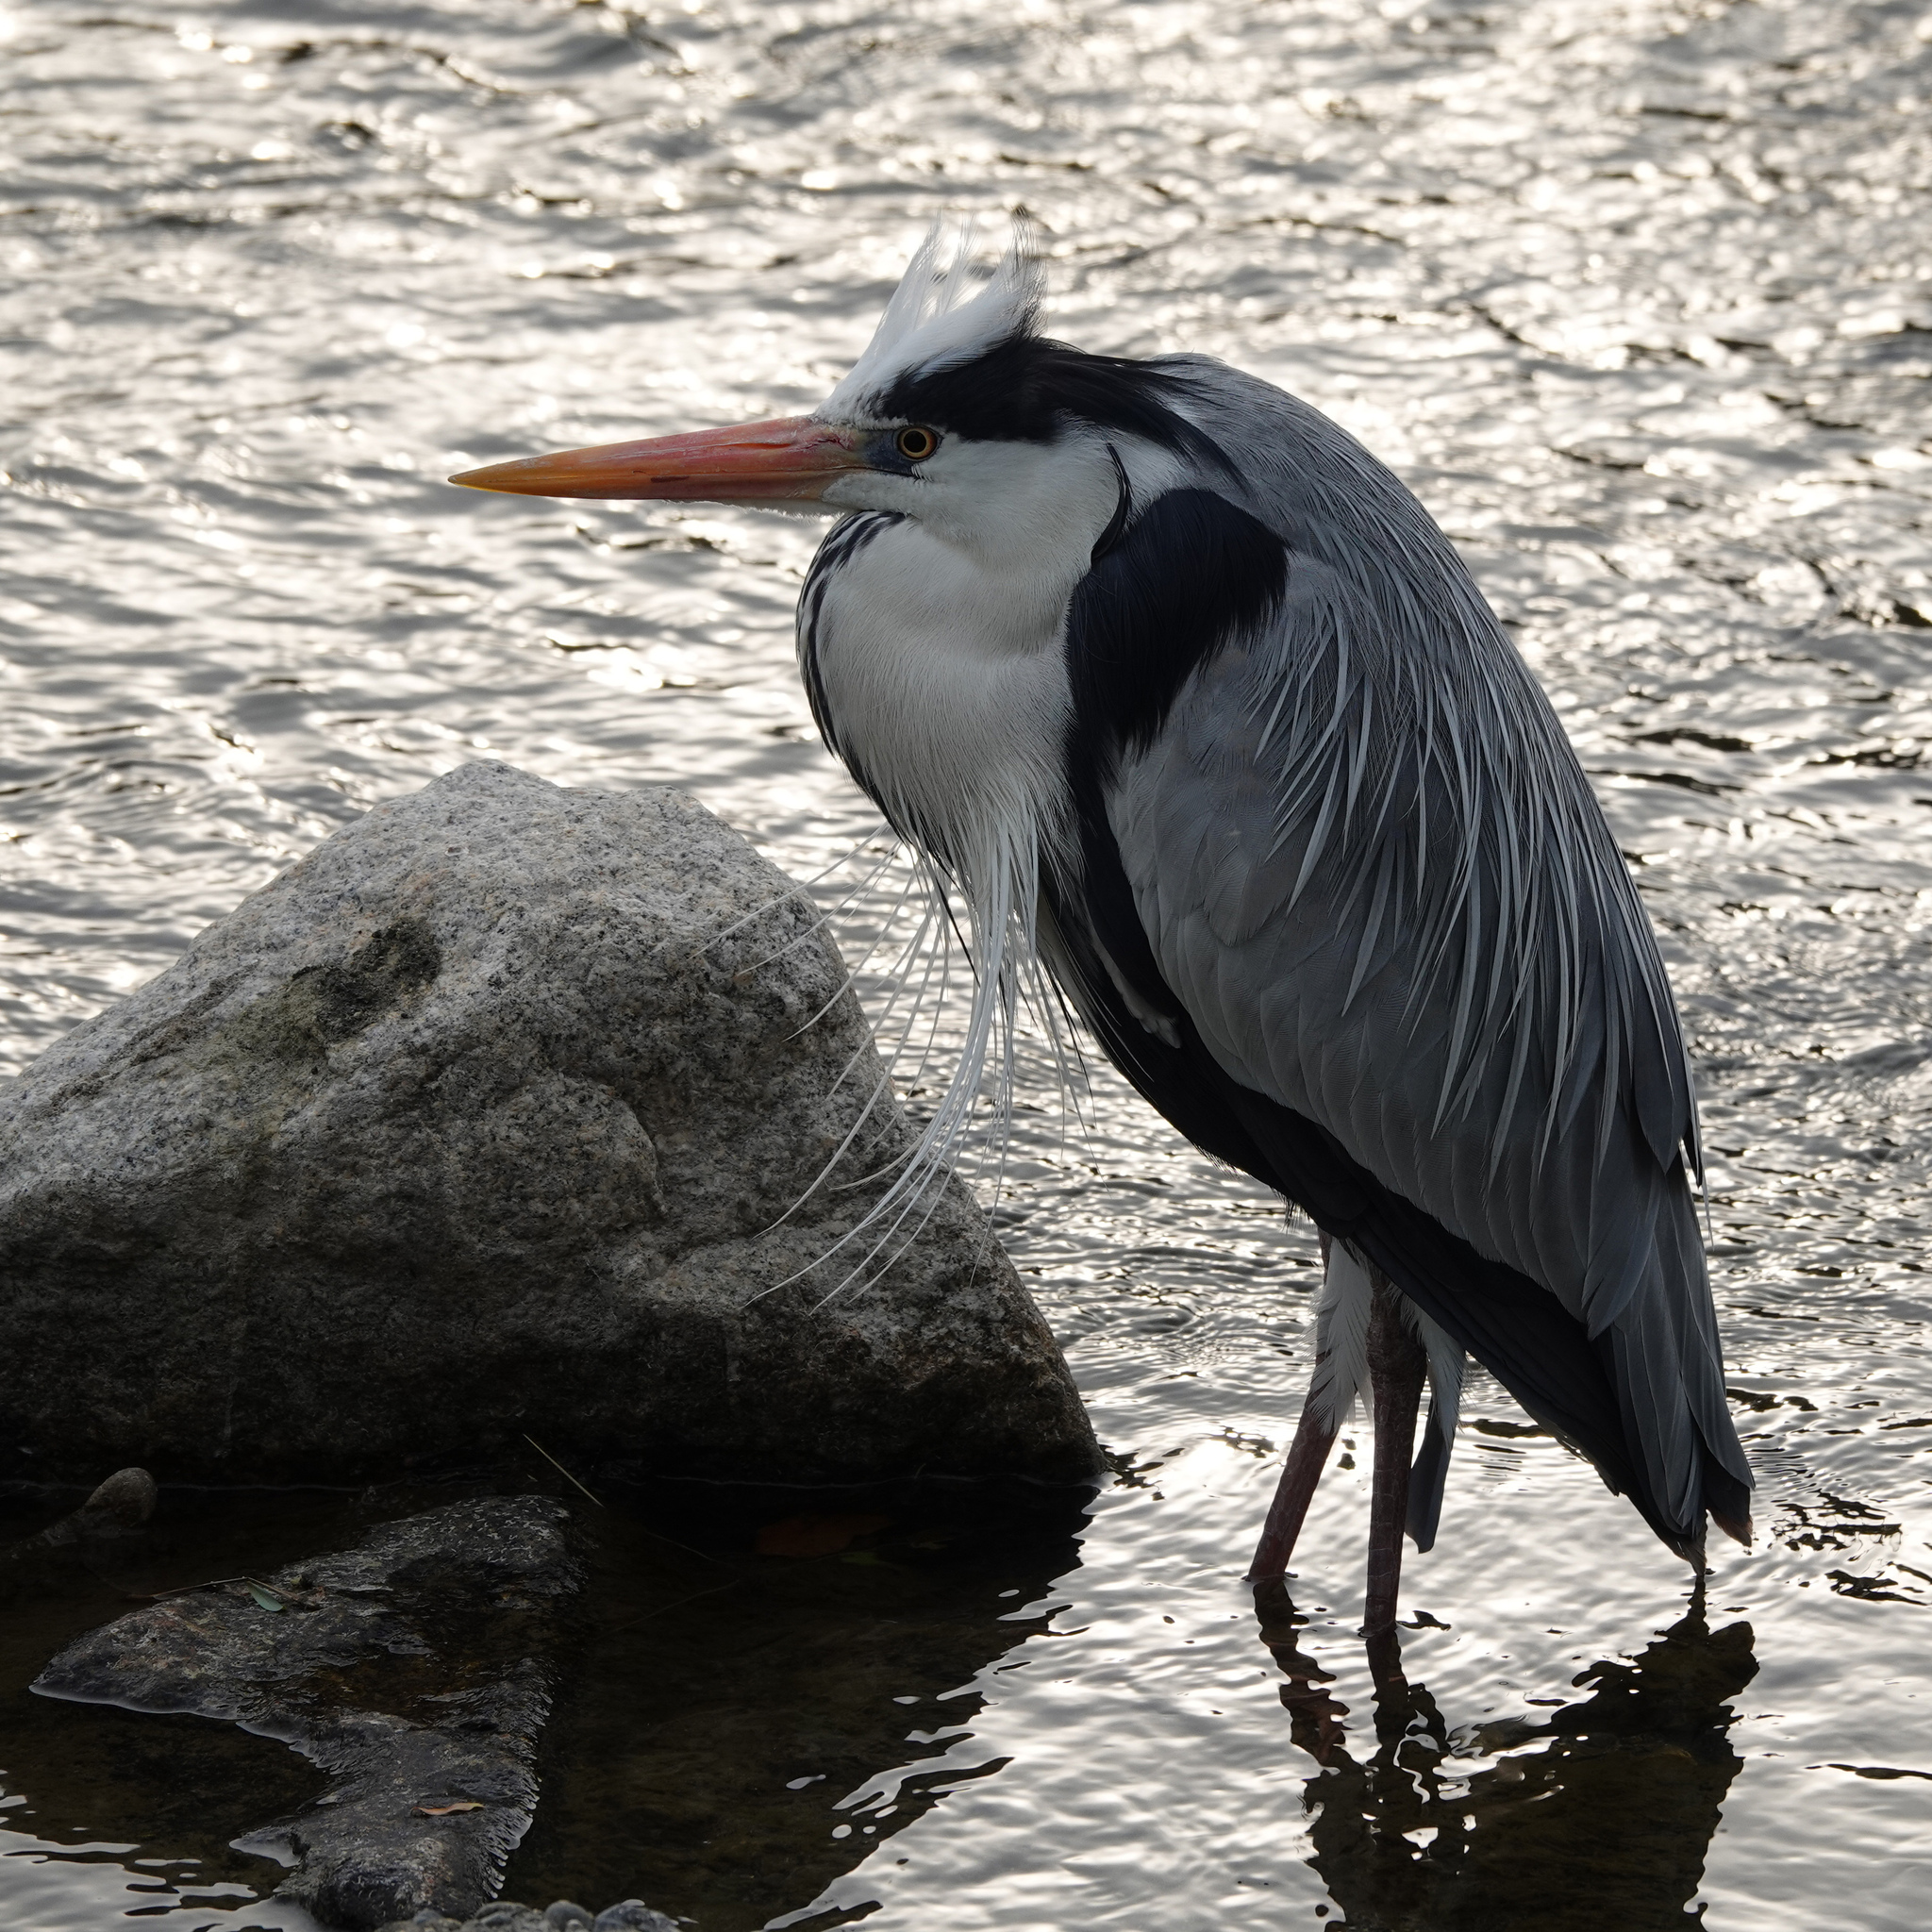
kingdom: Animalia
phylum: Chordata
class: Aves
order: Pelecaniformes
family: Ardeidae
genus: Ardea
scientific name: Ardea cinerea
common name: Grey heron
